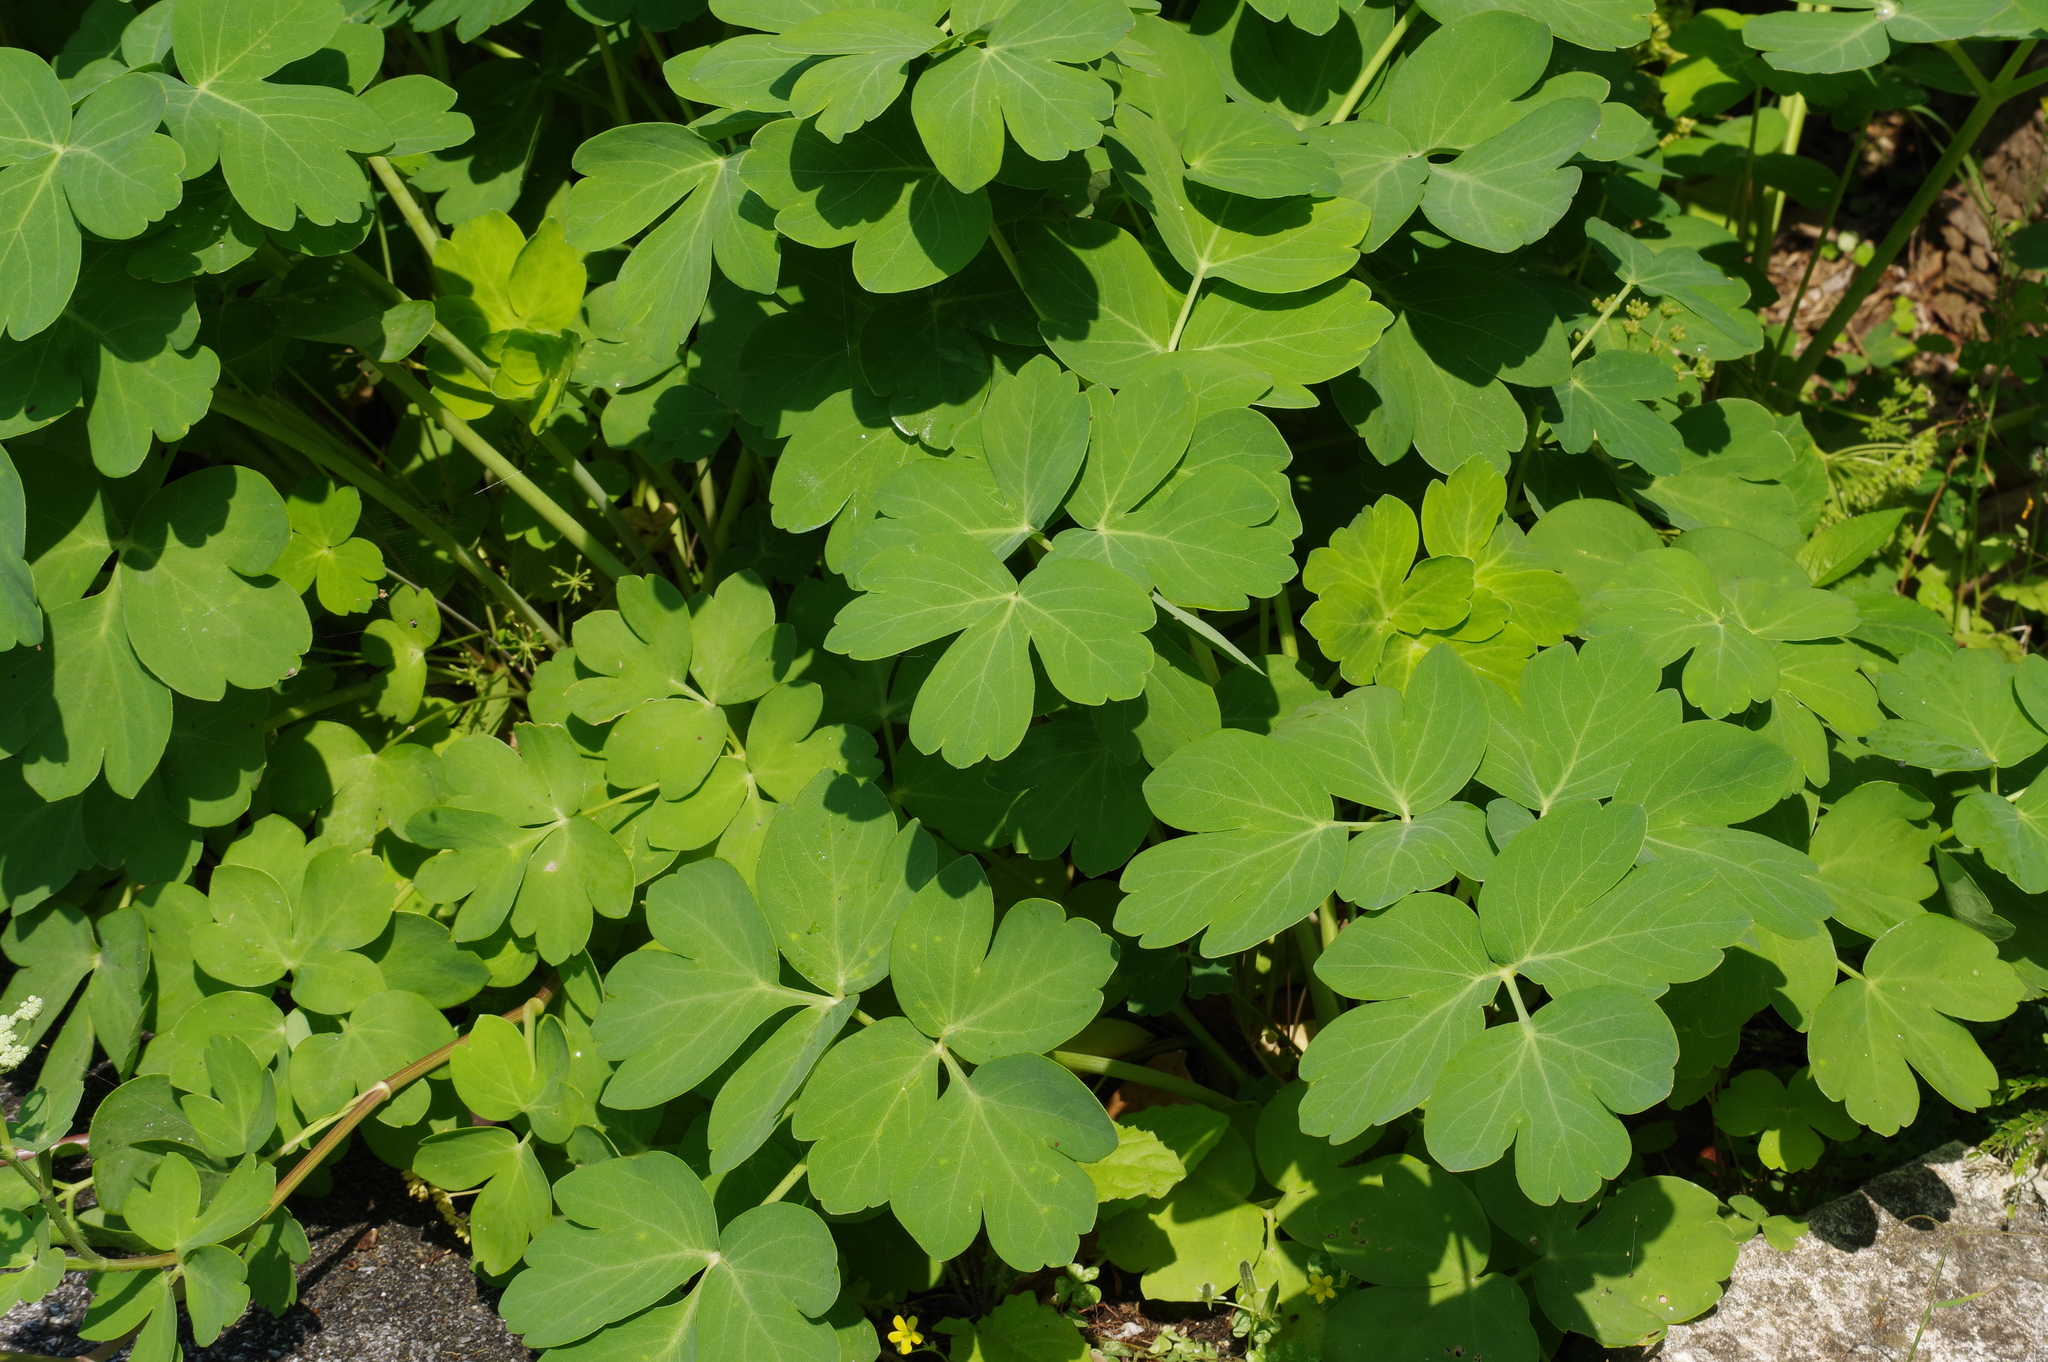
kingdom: Plantae
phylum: Tracheophyta
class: Magnoliopsida
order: Apiales
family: Apiaceae
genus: Peucedanum
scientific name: Peucedanum japonicum
